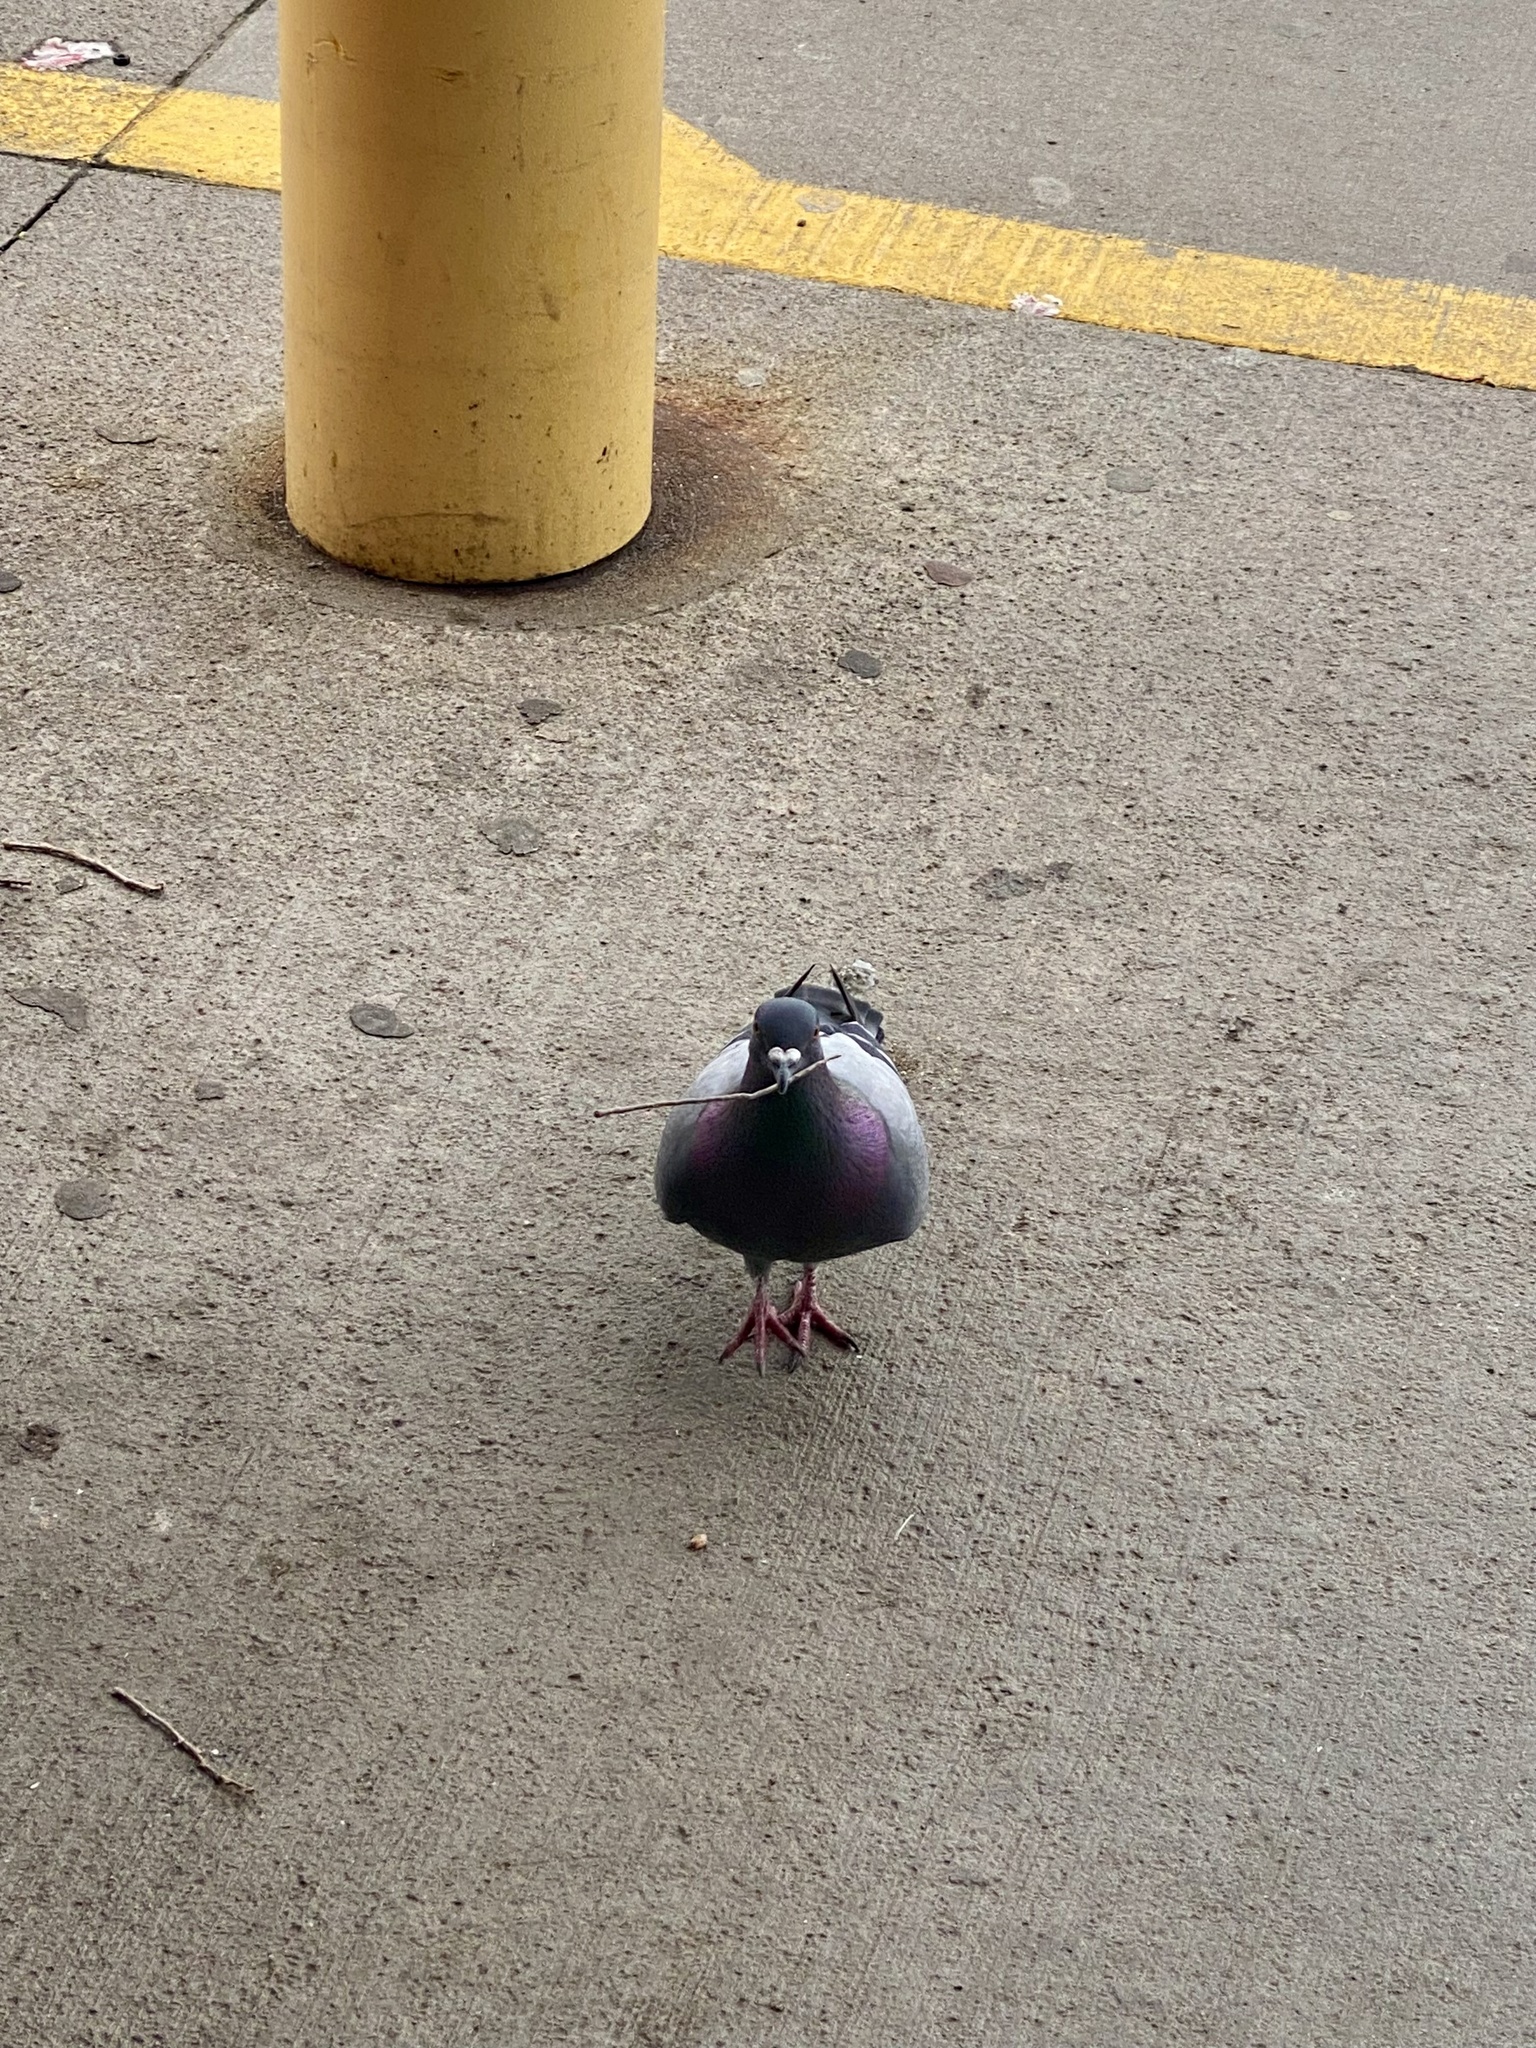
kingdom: Animalia
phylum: Chordata
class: Aves
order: Columbiformes
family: Columbidae
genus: Columba
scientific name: Columba livia
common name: Rock pigeon
